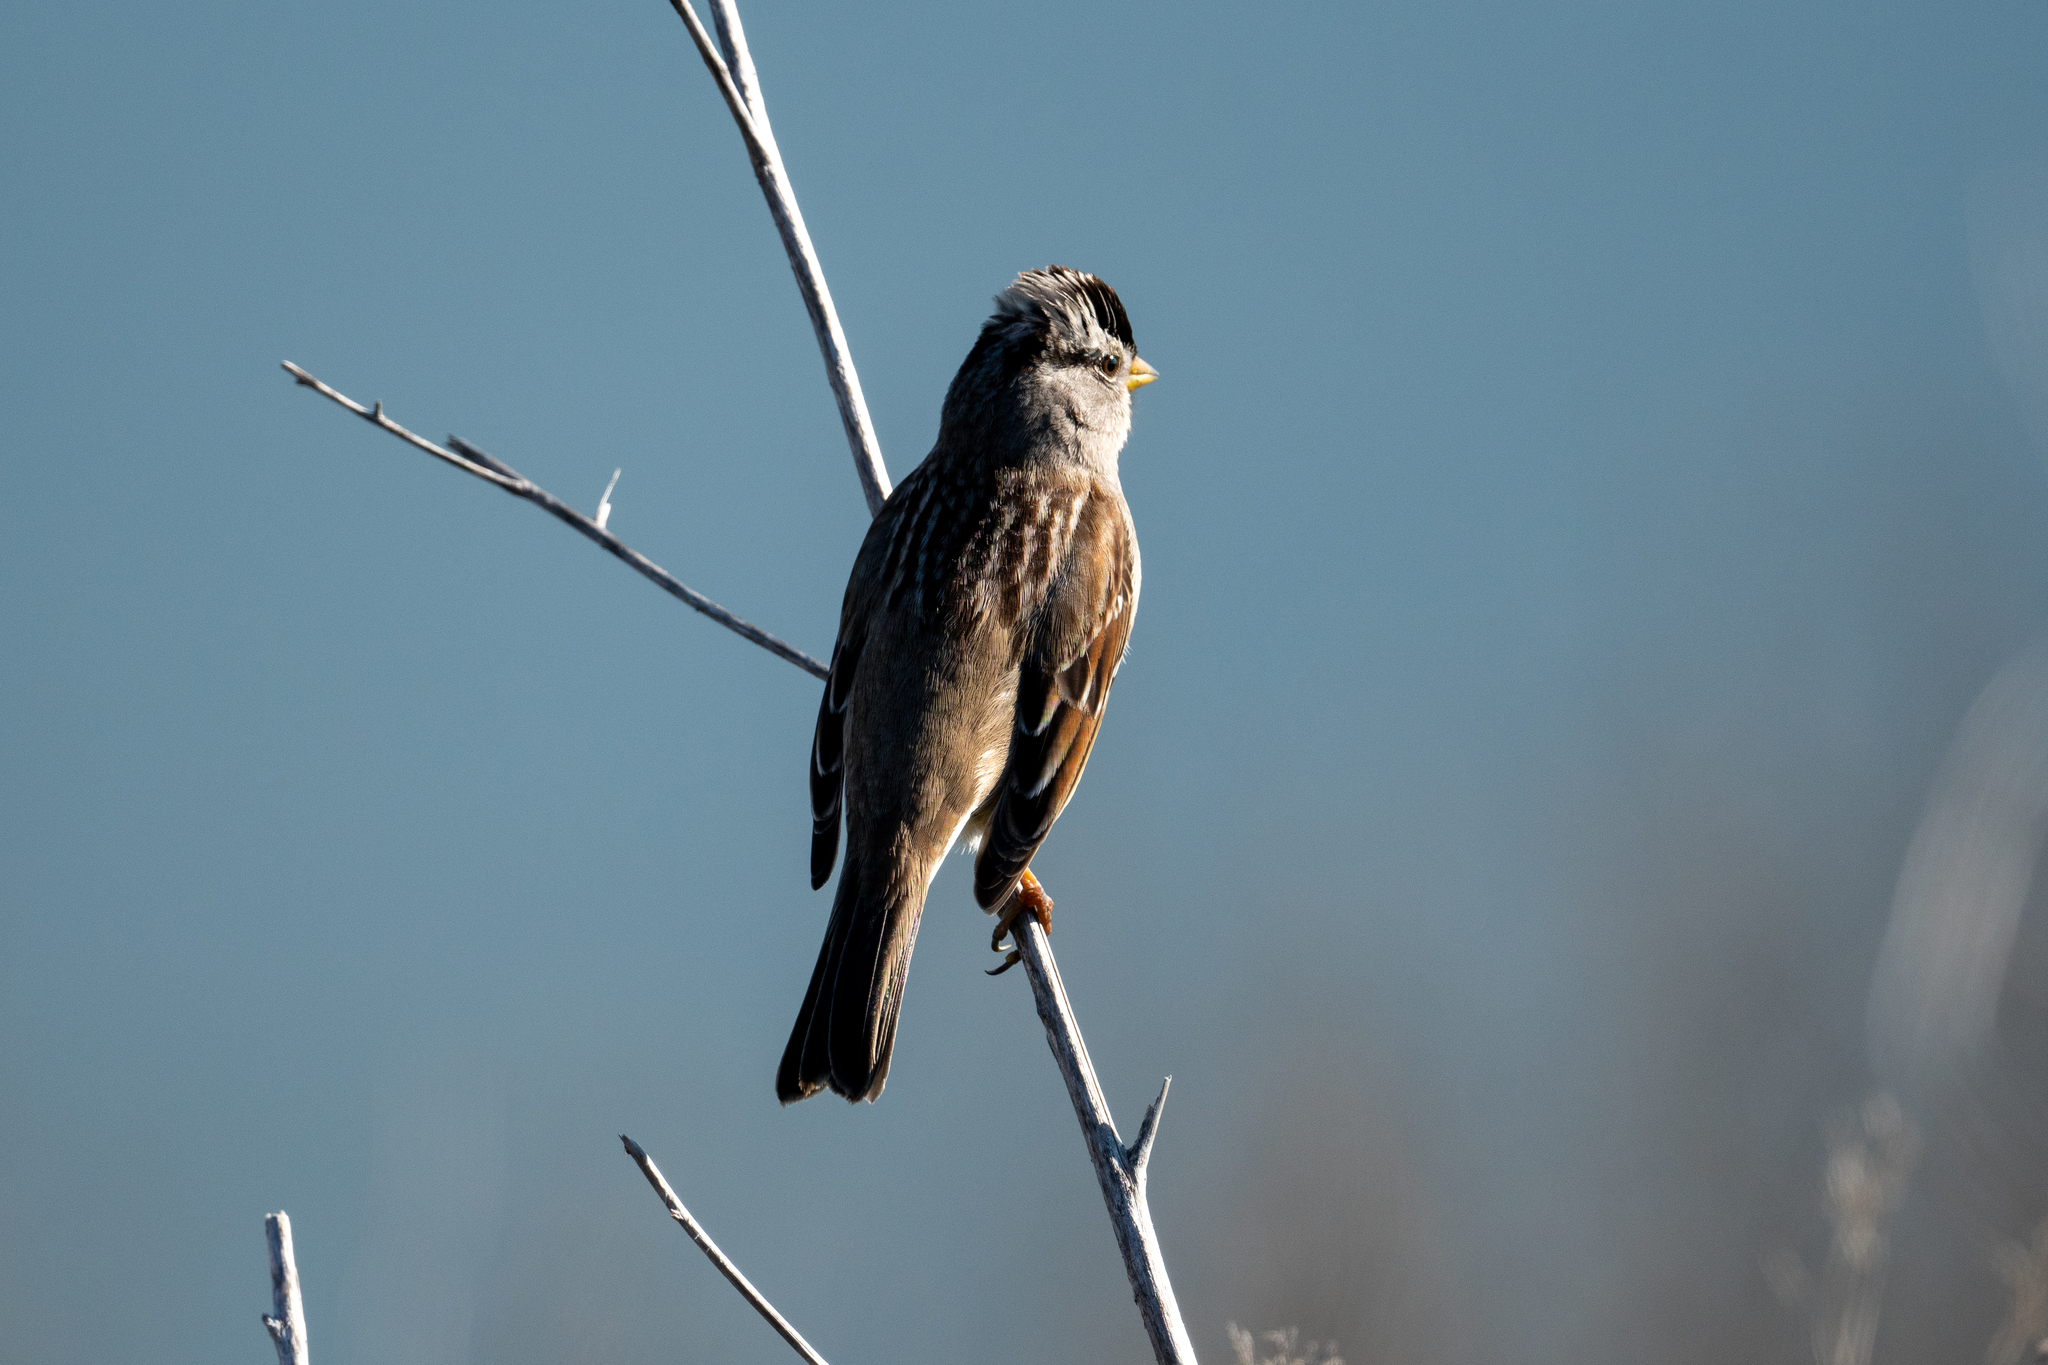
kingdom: Animalia
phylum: Chordata
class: Aves
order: Passeriformes
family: Passerellidae
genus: Zonotrichia
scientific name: Zonotrichia leucophrys
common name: White-crowned sparrow
